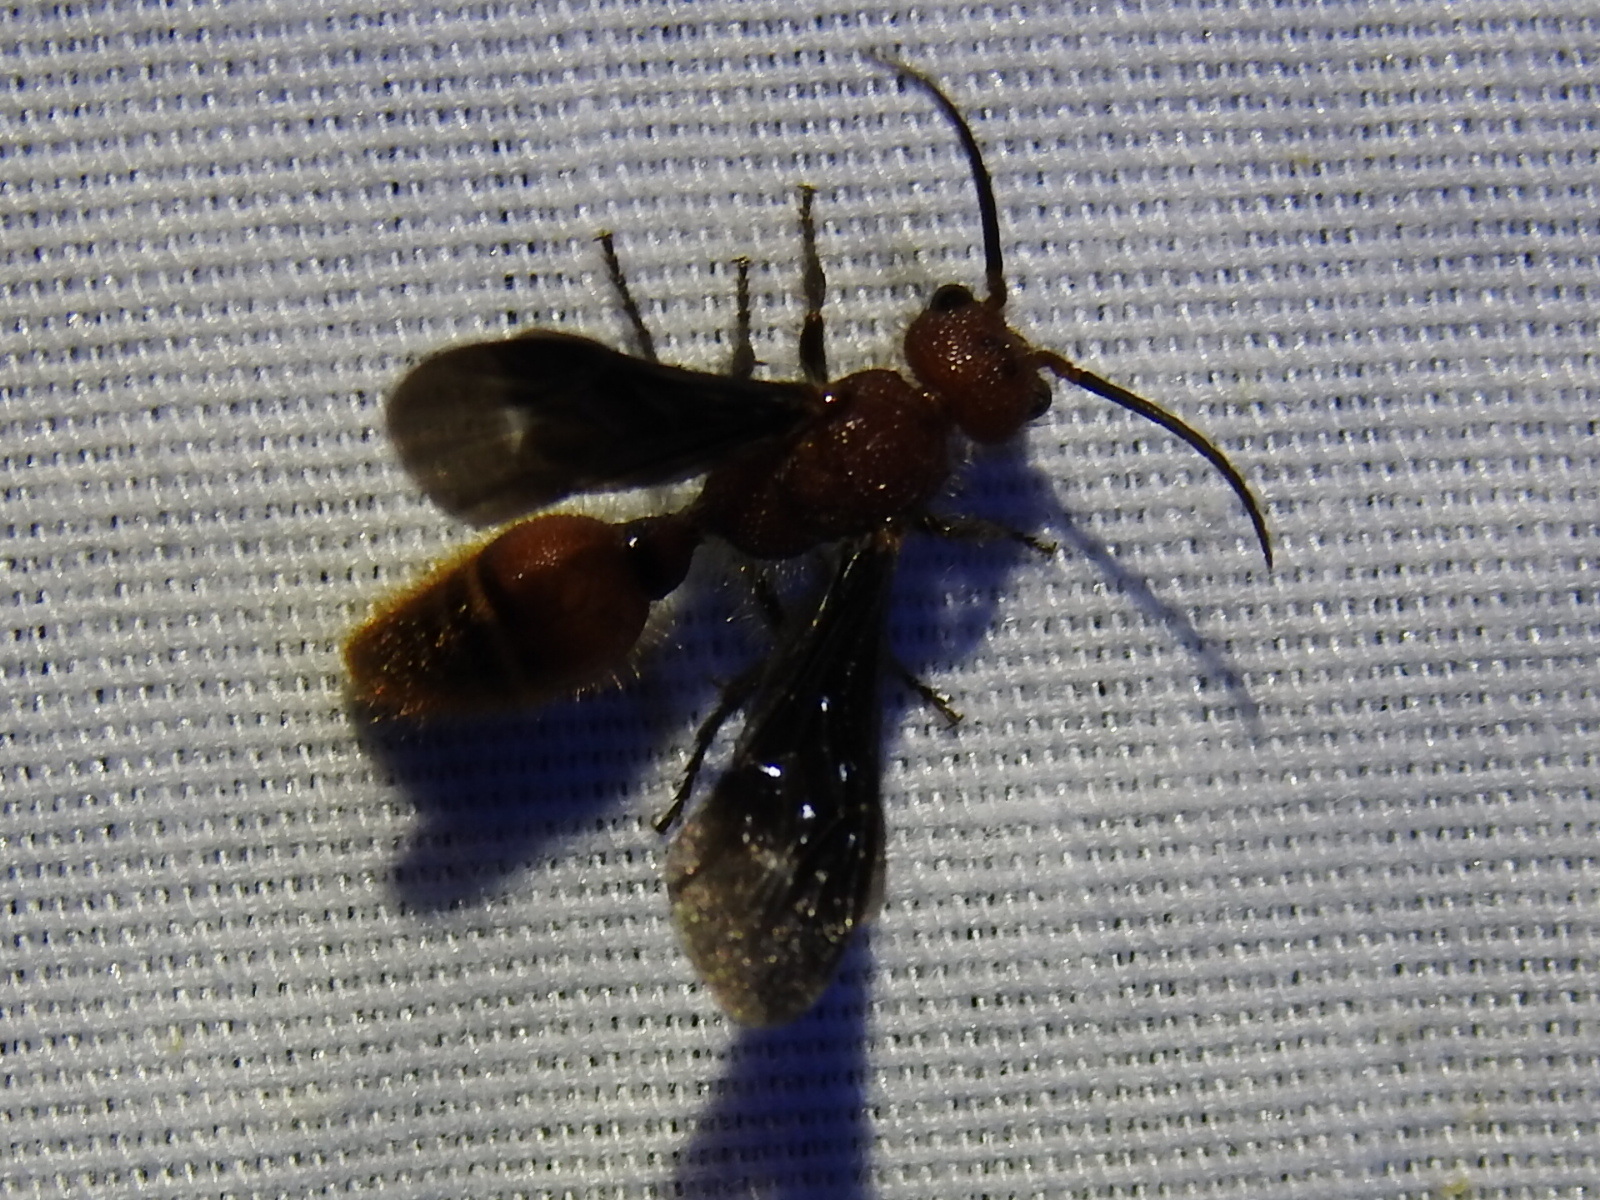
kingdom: Animalia
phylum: Arthropoda
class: Insecta
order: Hymenoptera
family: Mutillidae
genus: Sphaeropthalma
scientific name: Sphaeropthalma
